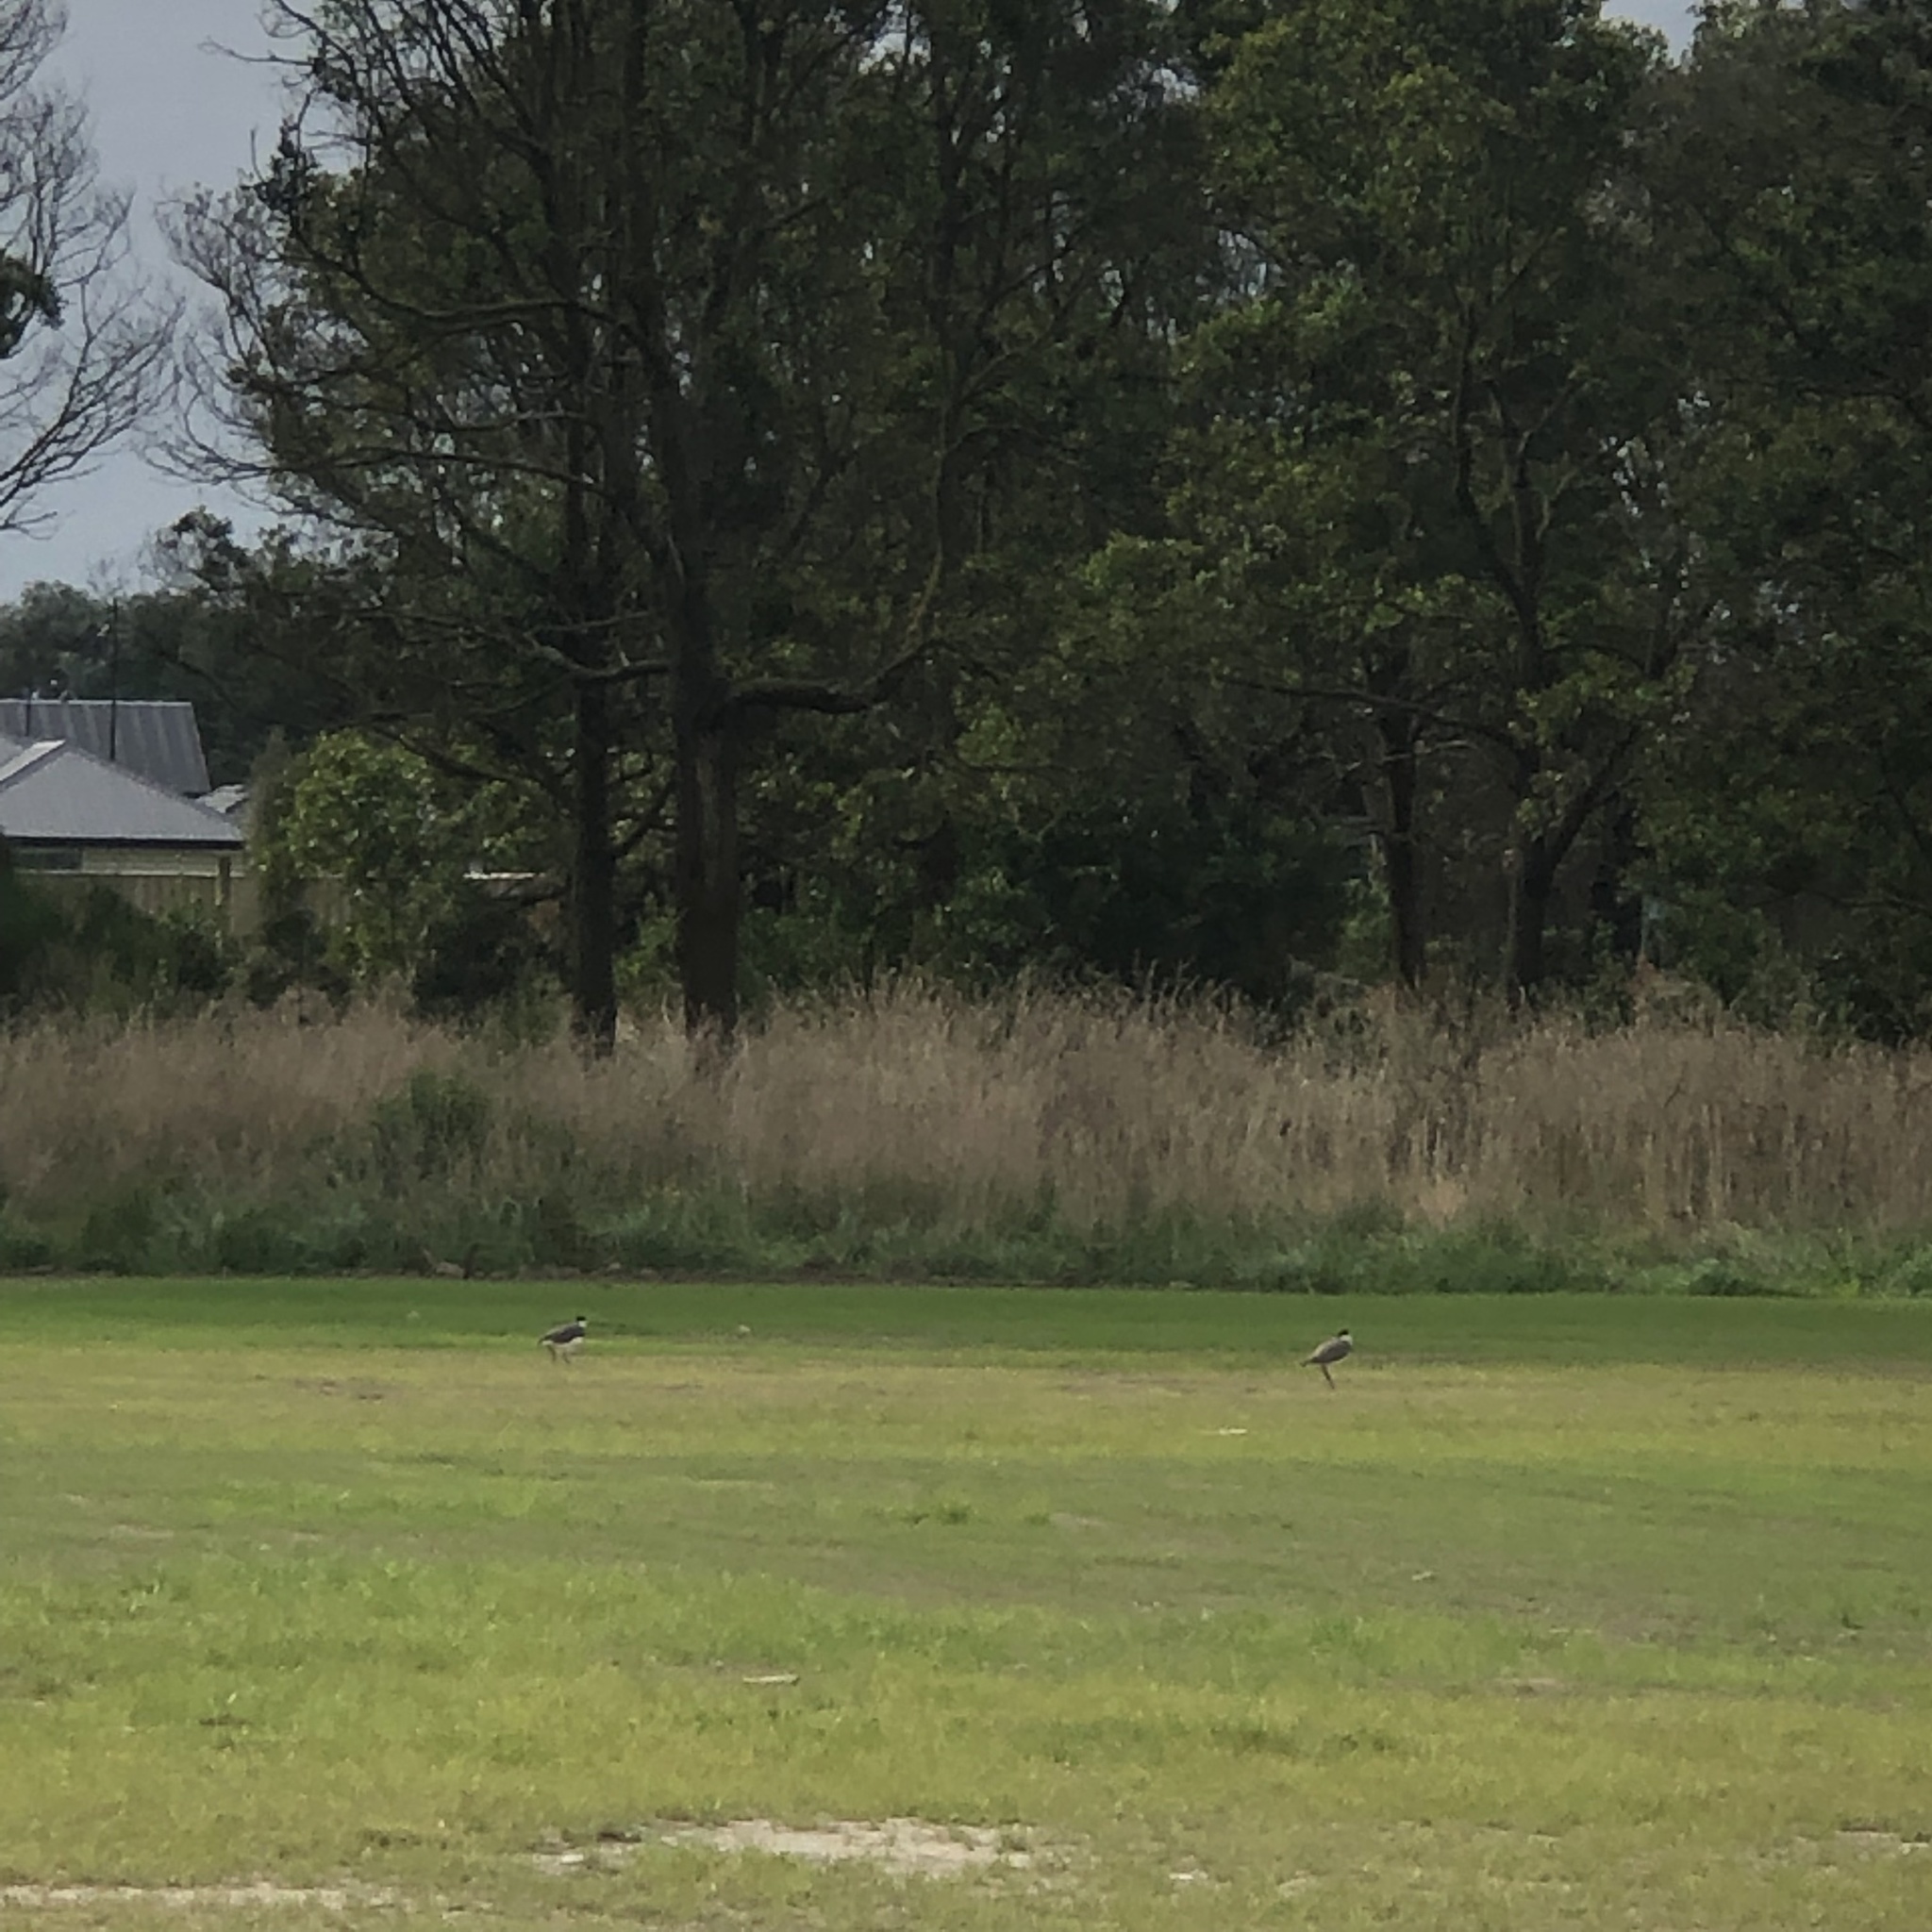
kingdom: Animalia
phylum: Chordata
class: Aves
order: Charadriiformes
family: Charadriidae
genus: Vanellus
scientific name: Vanellus miles
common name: Masked lapwing
